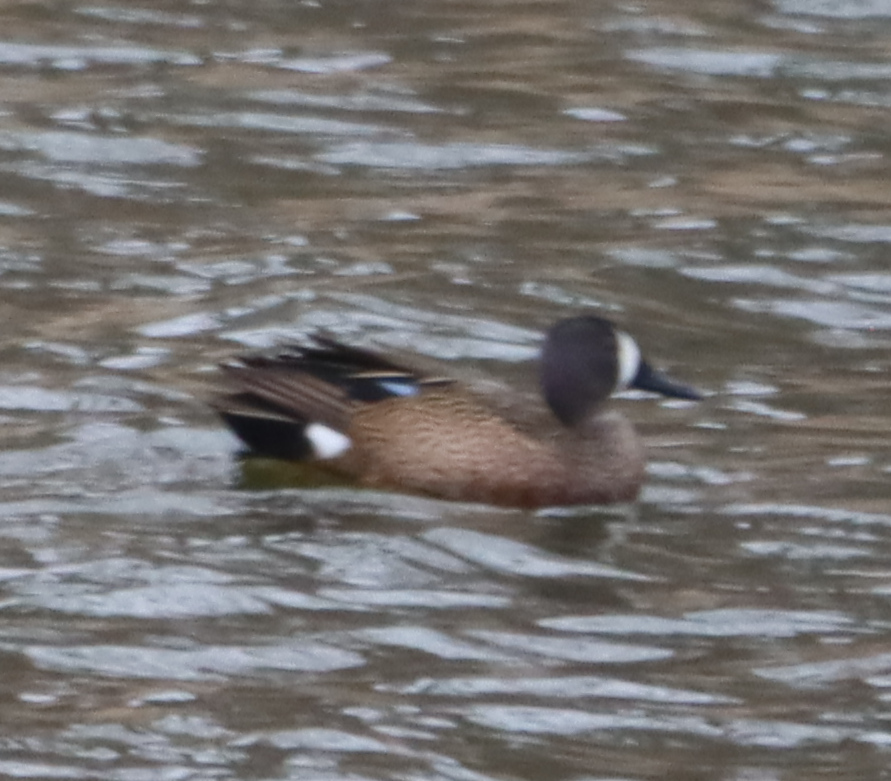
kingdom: Animalia
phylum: Chordata
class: Aves
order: Anseriformes
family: Anatidae
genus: Spatula
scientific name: Spatula discors
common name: Blue-winged teal
